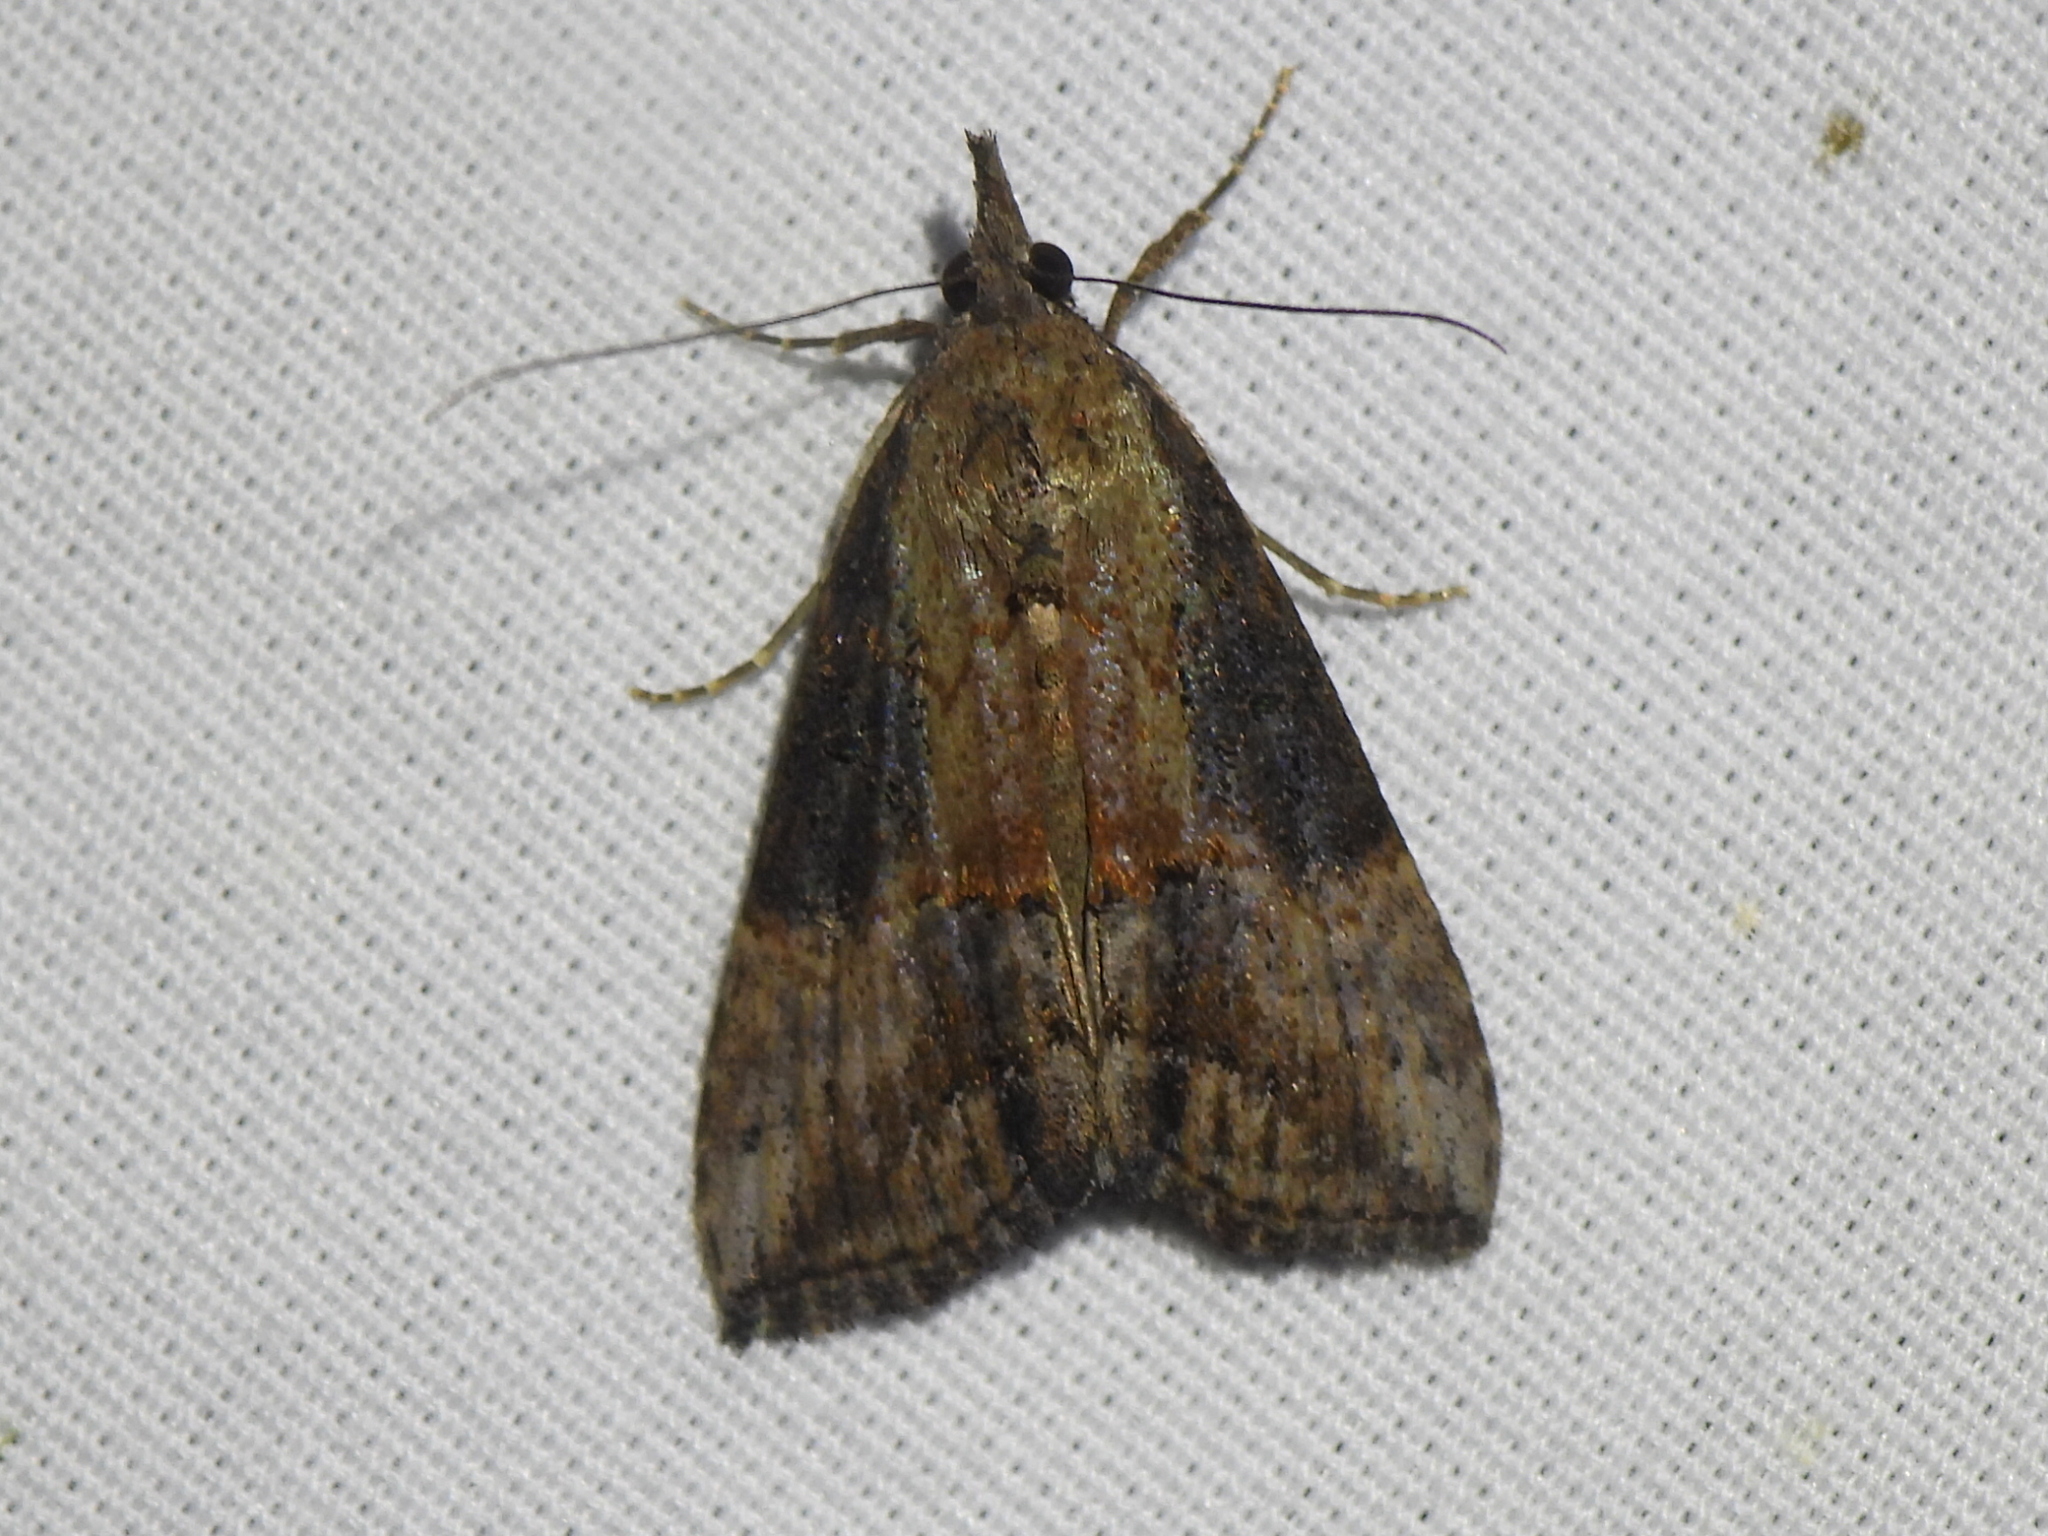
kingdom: Animalia
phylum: Arthropoda
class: Insecta
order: Lepidoptera
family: Erebidae
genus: Hypena
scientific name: Hypena scabra
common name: Green cloverworm
